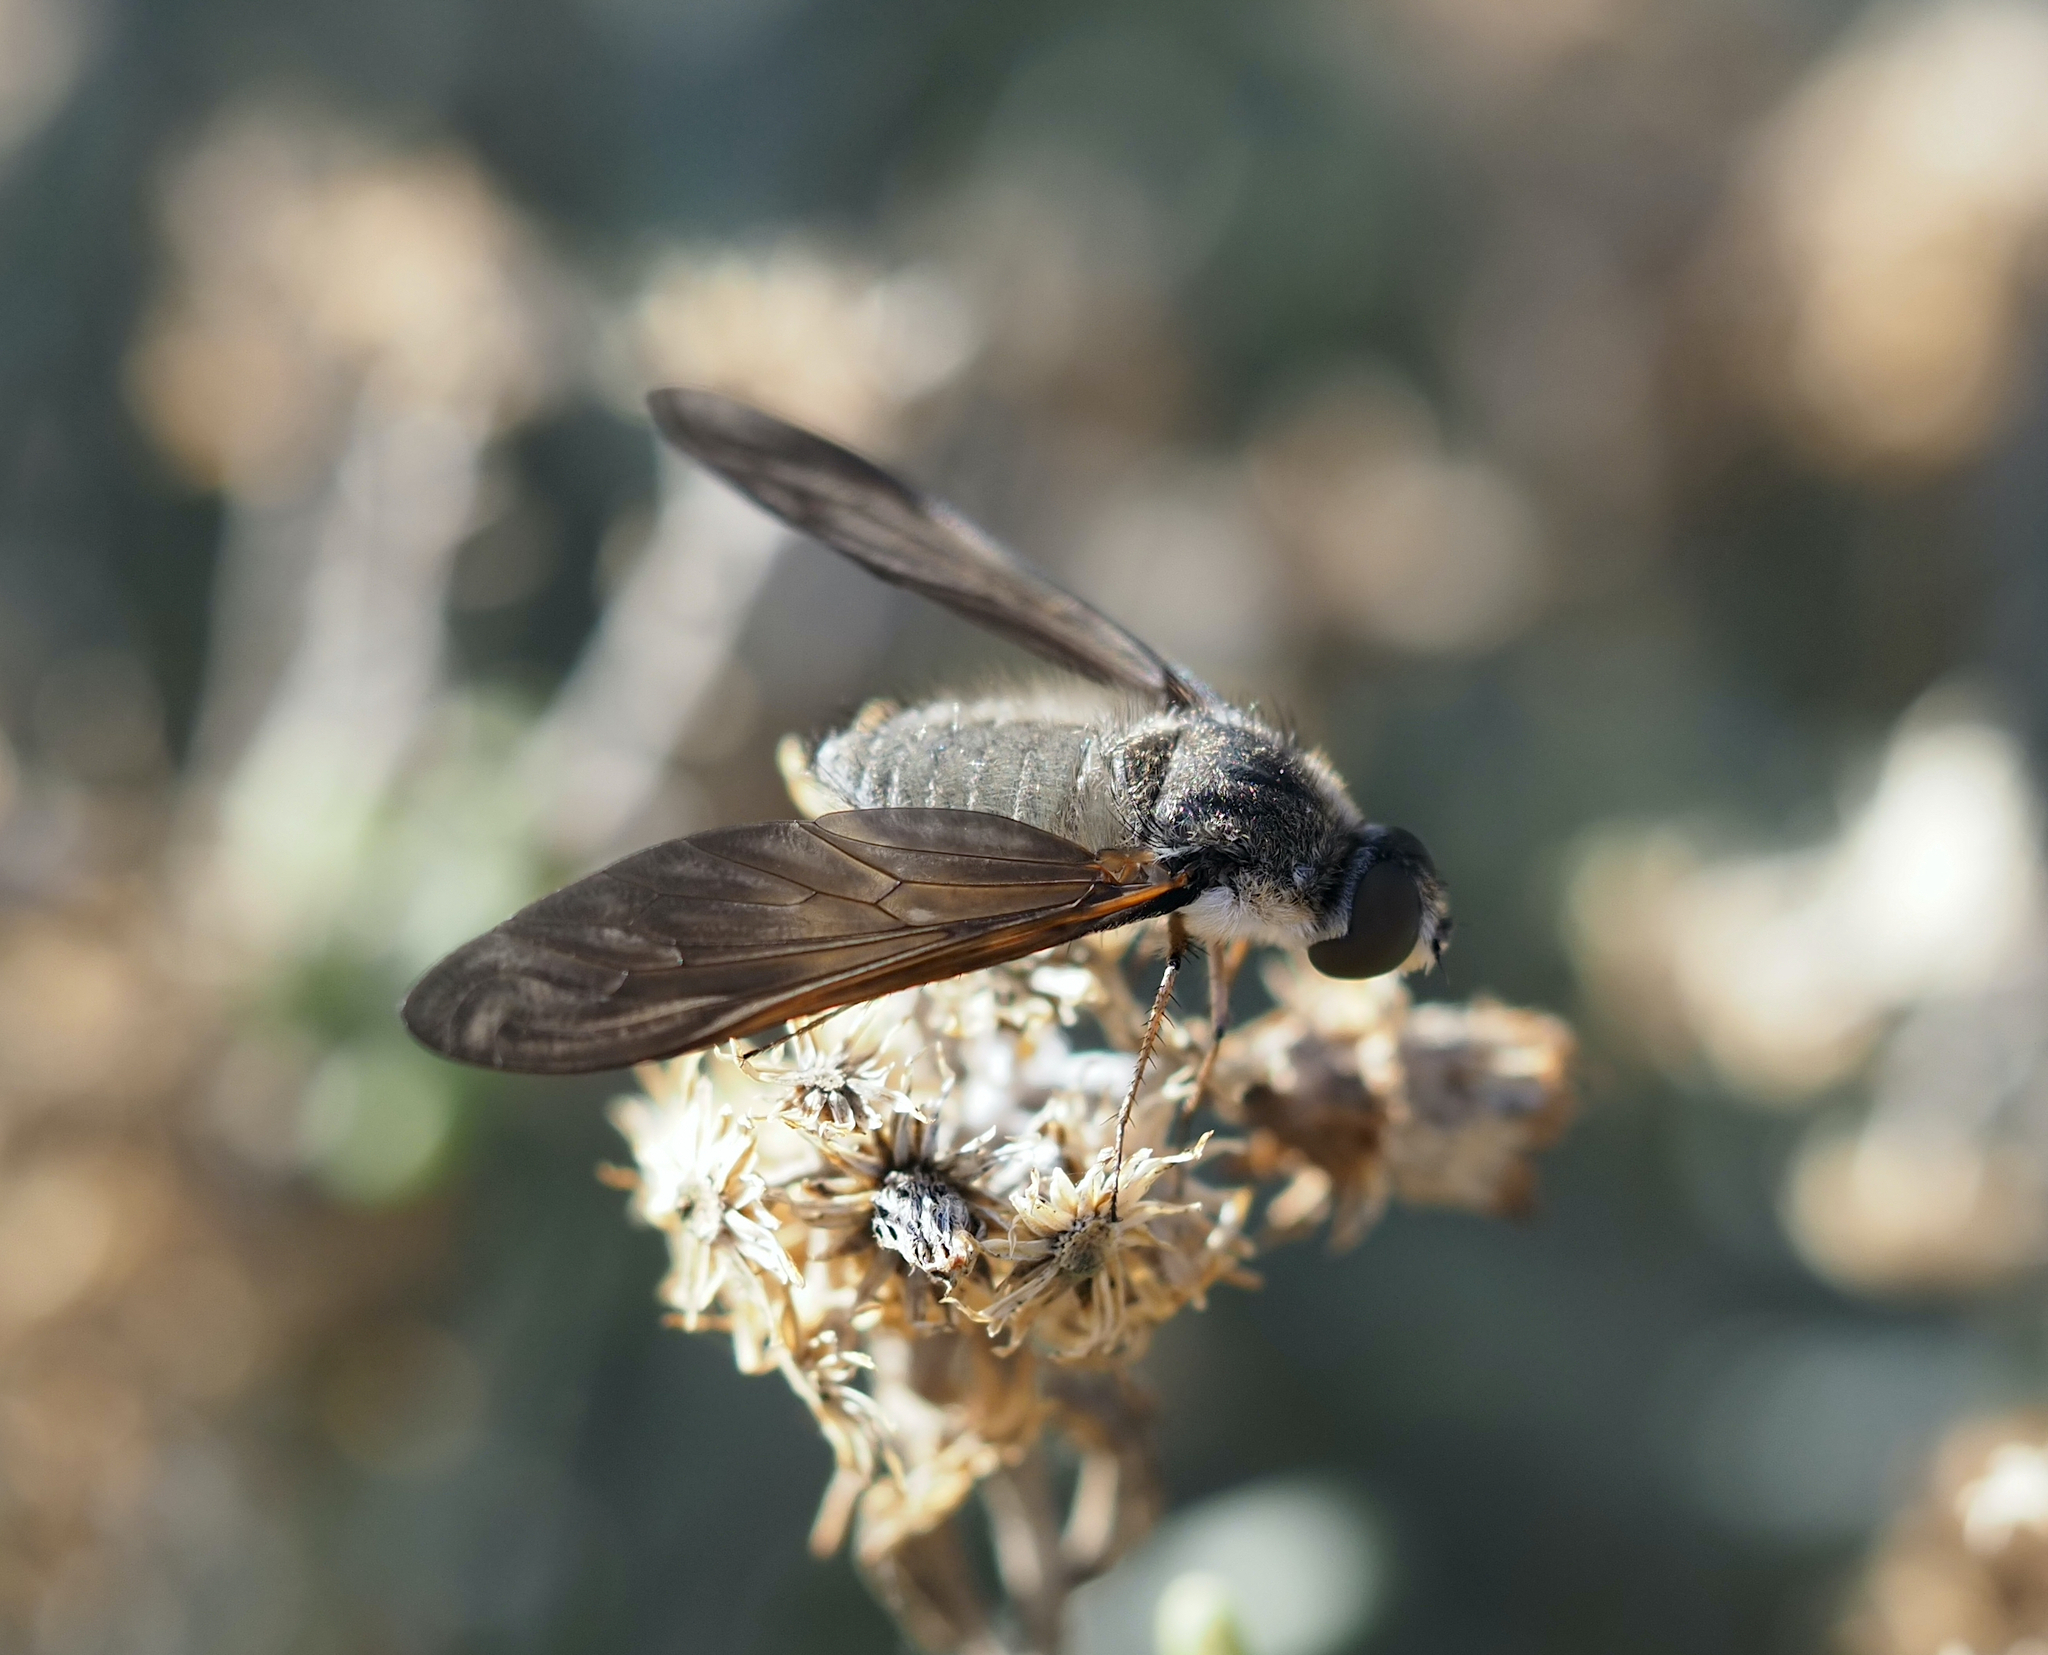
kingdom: Animalia
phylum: Arthropoda
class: Insecta
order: Diptera
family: Bombyliidae
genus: Canariellum
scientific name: Canariellum brunnipenne
